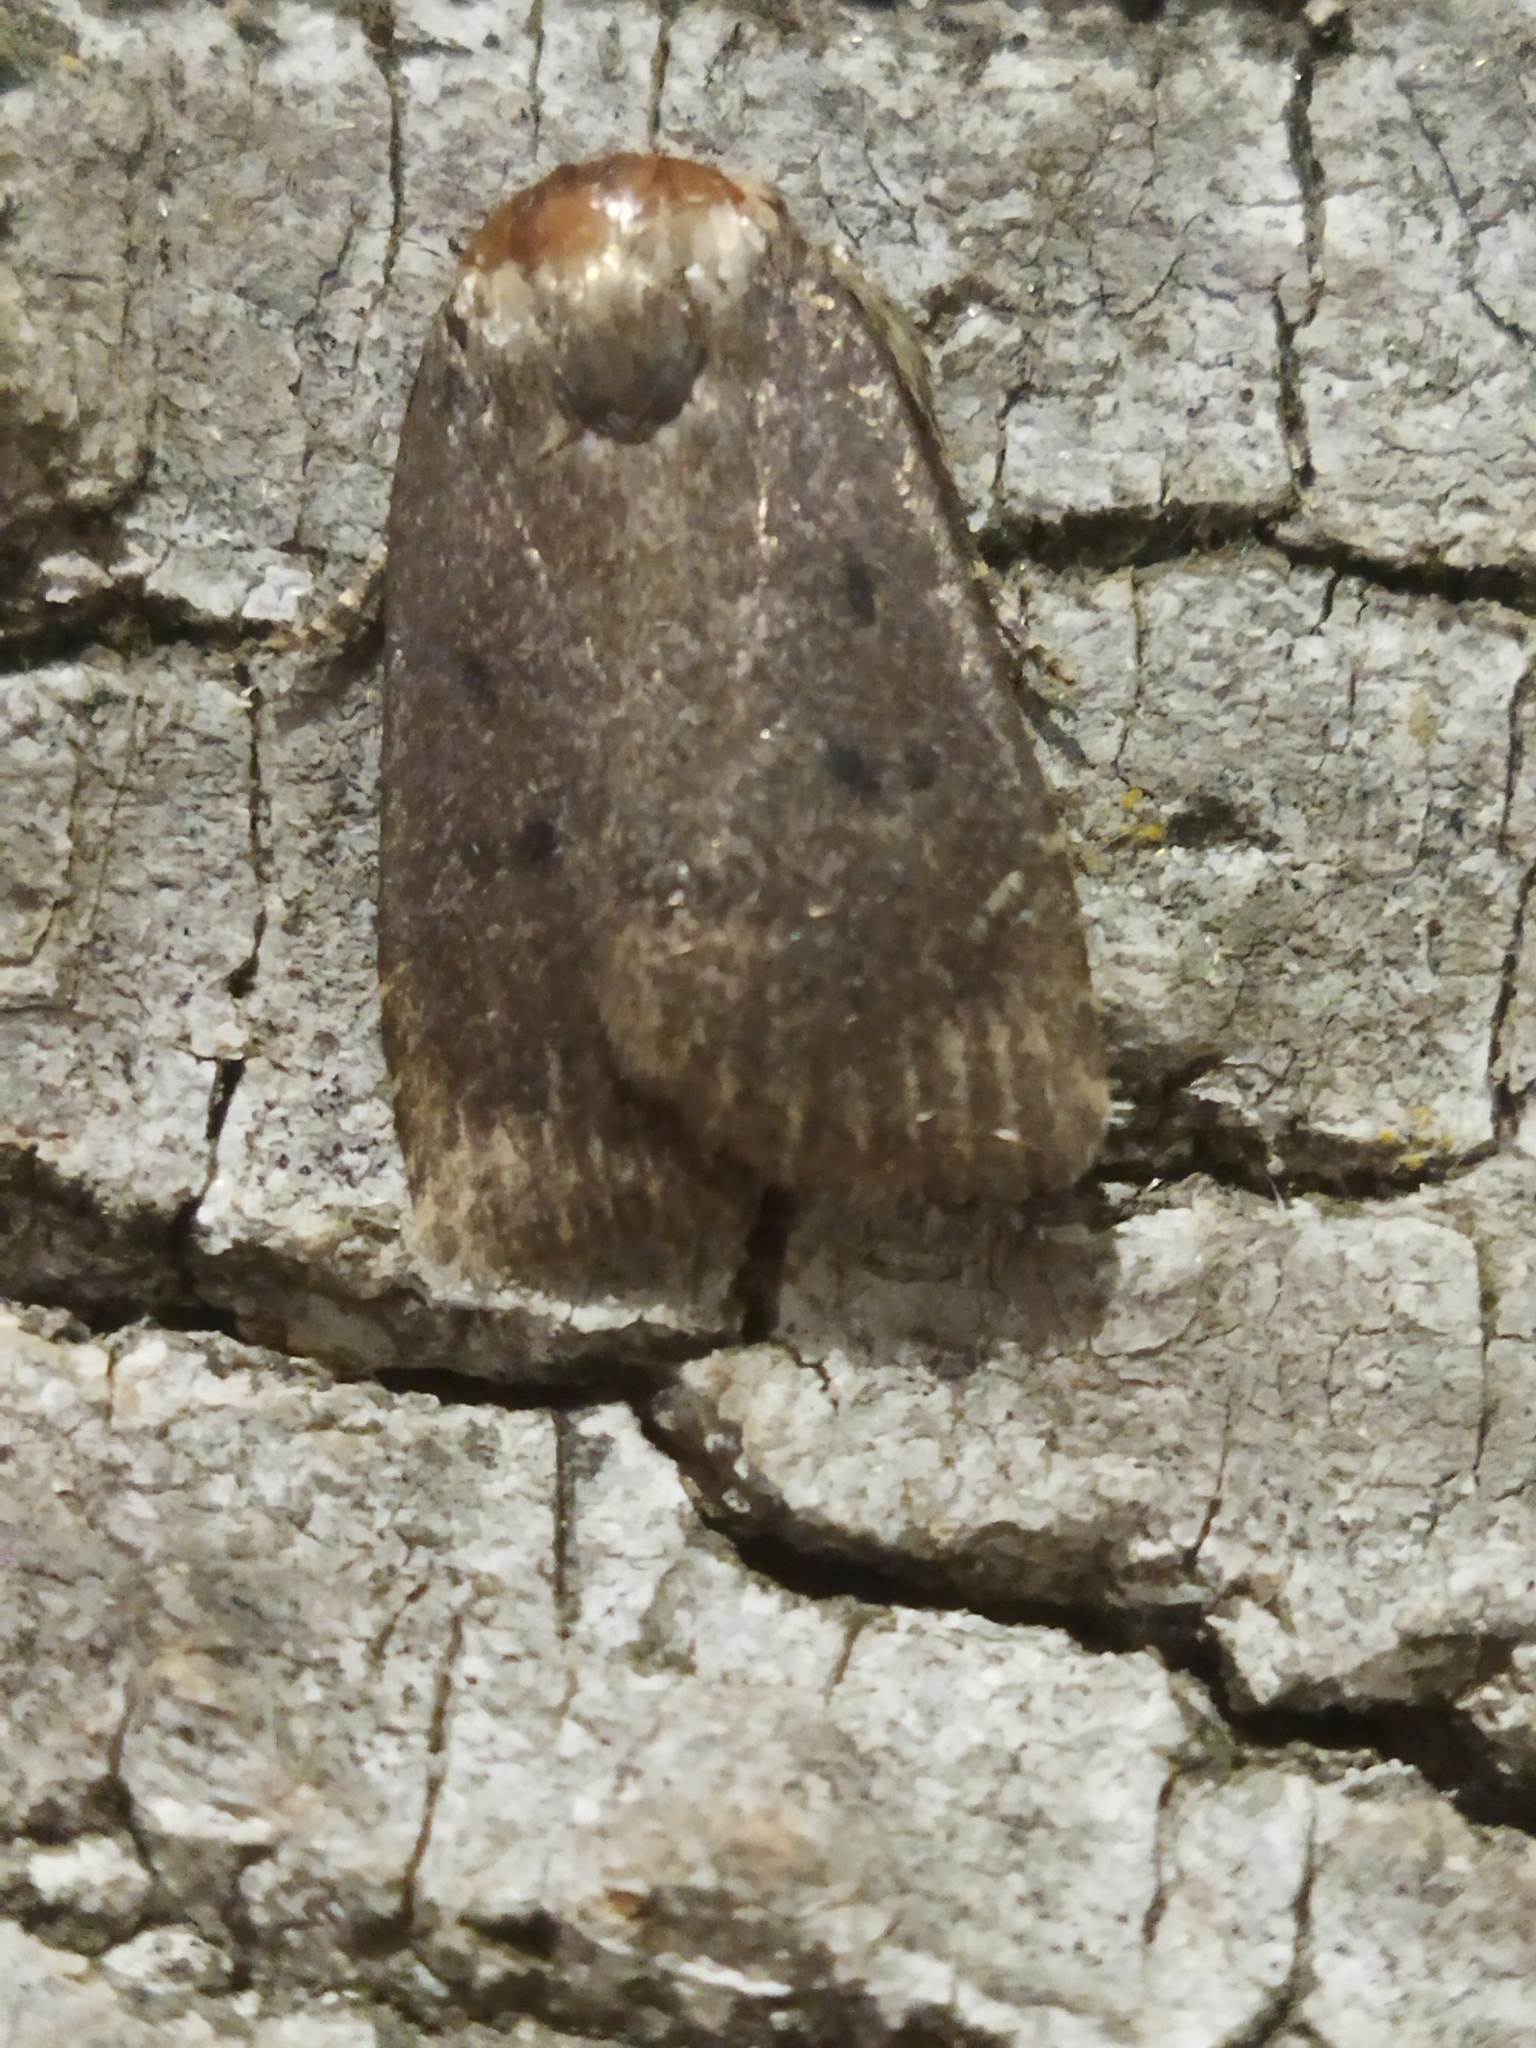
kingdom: Animalia
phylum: Arthropoda
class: Insecta
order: Lepidoptera
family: Noctuidae
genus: Amphipyra
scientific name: Amphipyra tragopoginis
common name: Mouse moth
